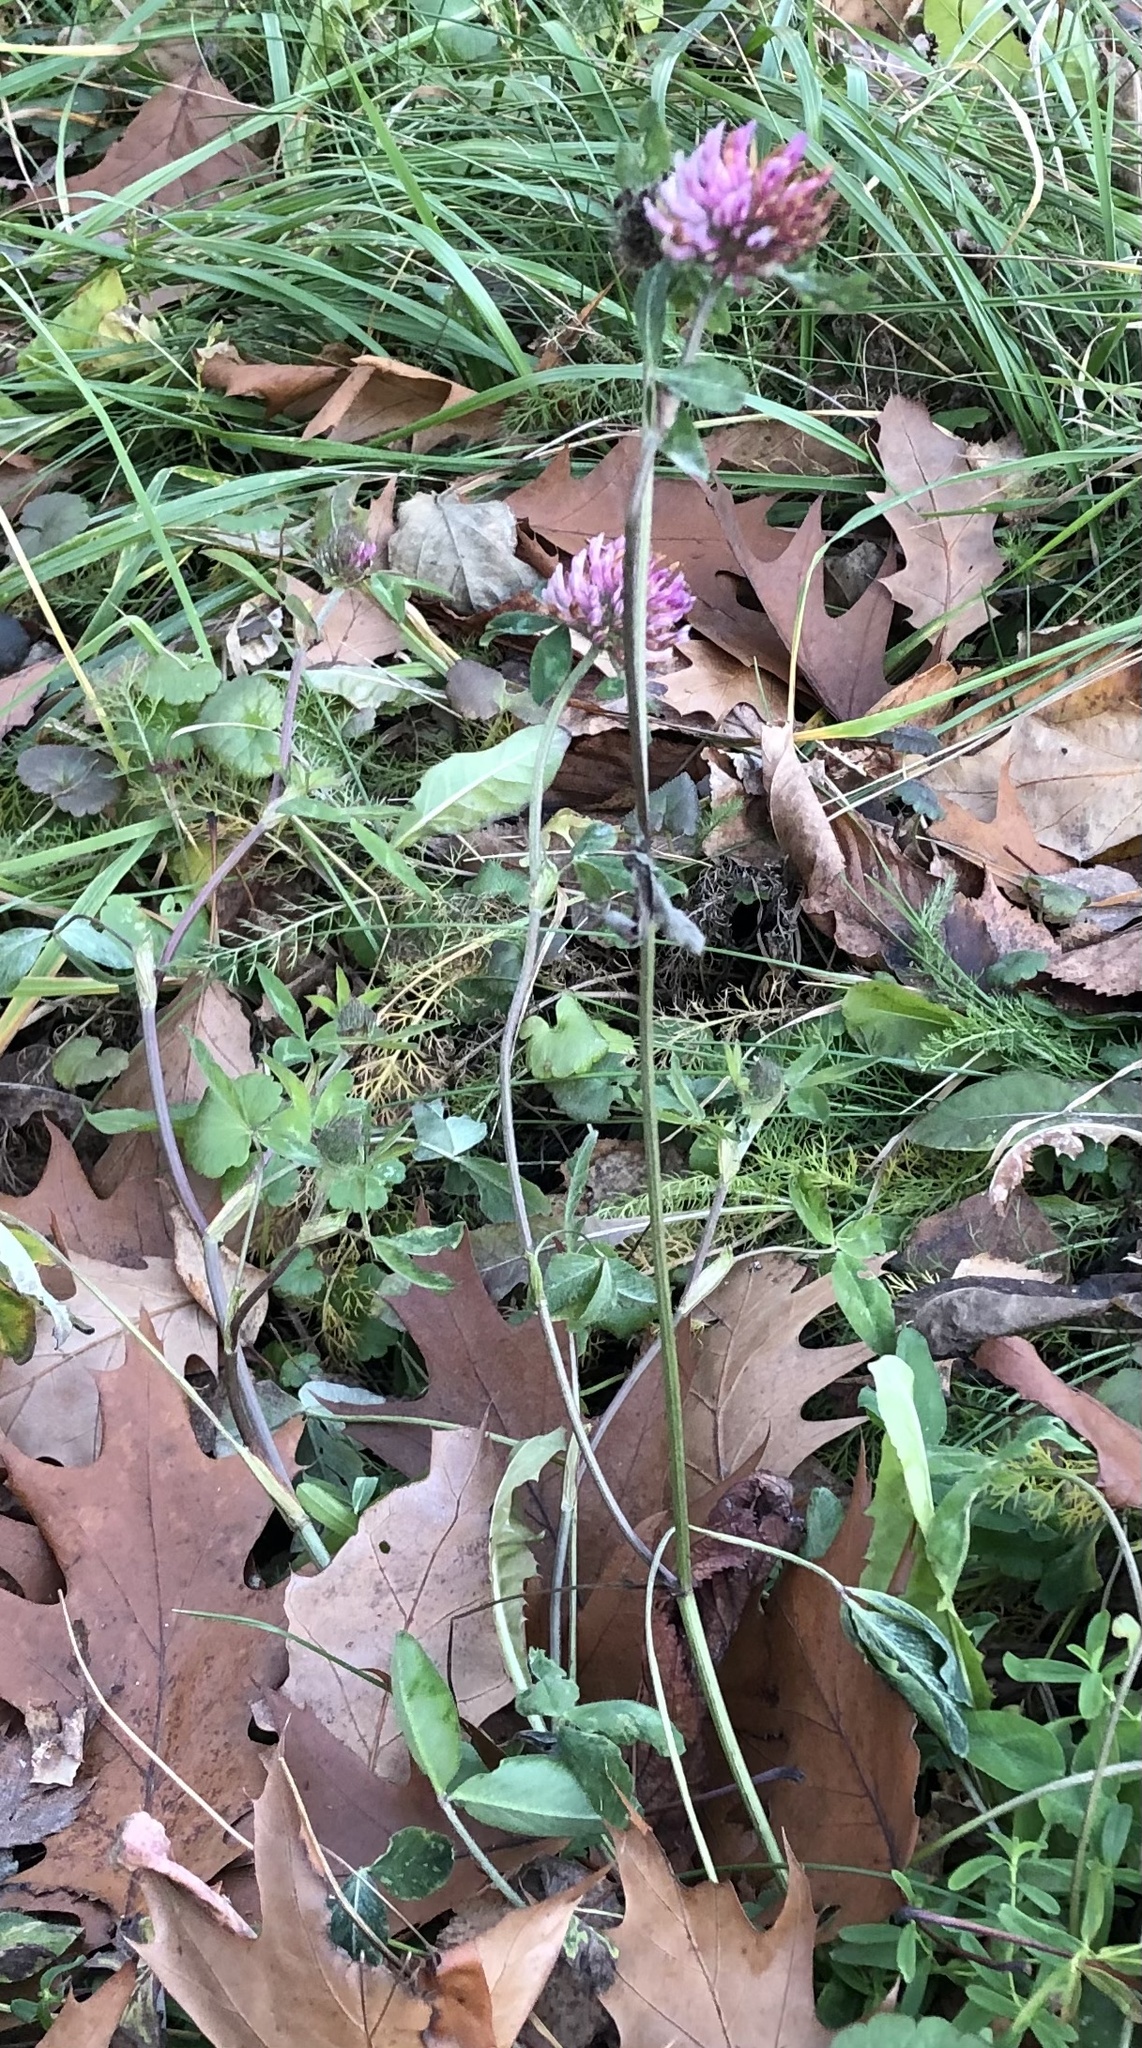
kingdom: Plantae
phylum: Tracheophyta
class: Magnoliopsida
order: Fabales
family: Fabaceae
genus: Trifolium
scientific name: Trifolium pratense
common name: Red clover
